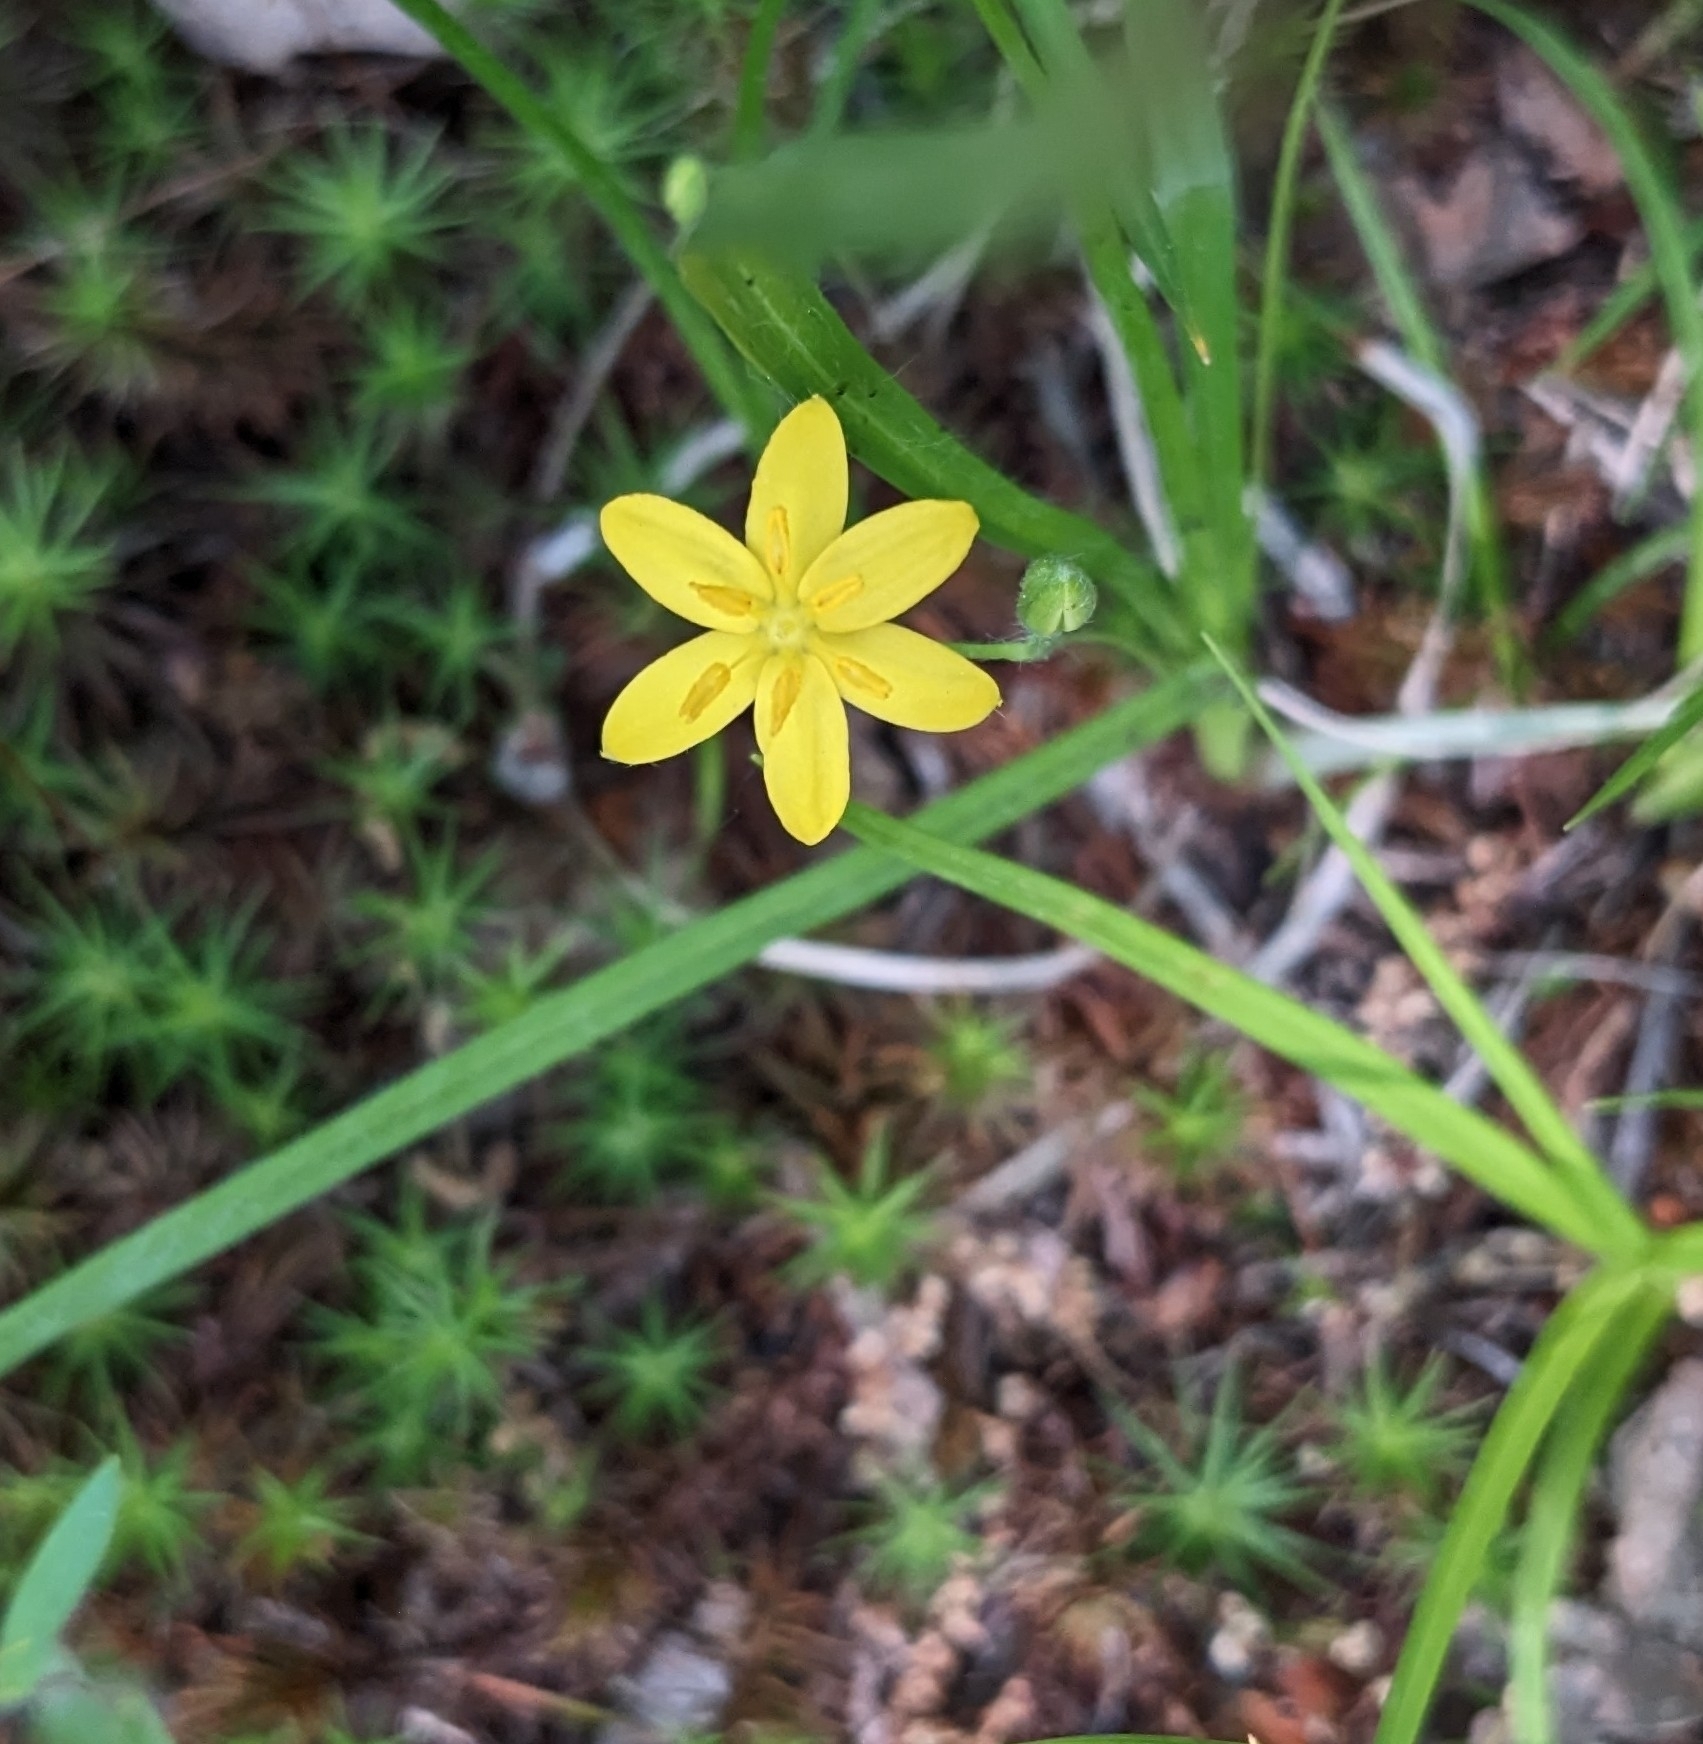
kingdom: Plantae
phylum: Tracheophyta
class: Liliopsida
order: Asparagales
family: Hypoxidaceae
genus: Hypoxis
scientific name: Hypoxis hirsuta
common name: Common goldstar
